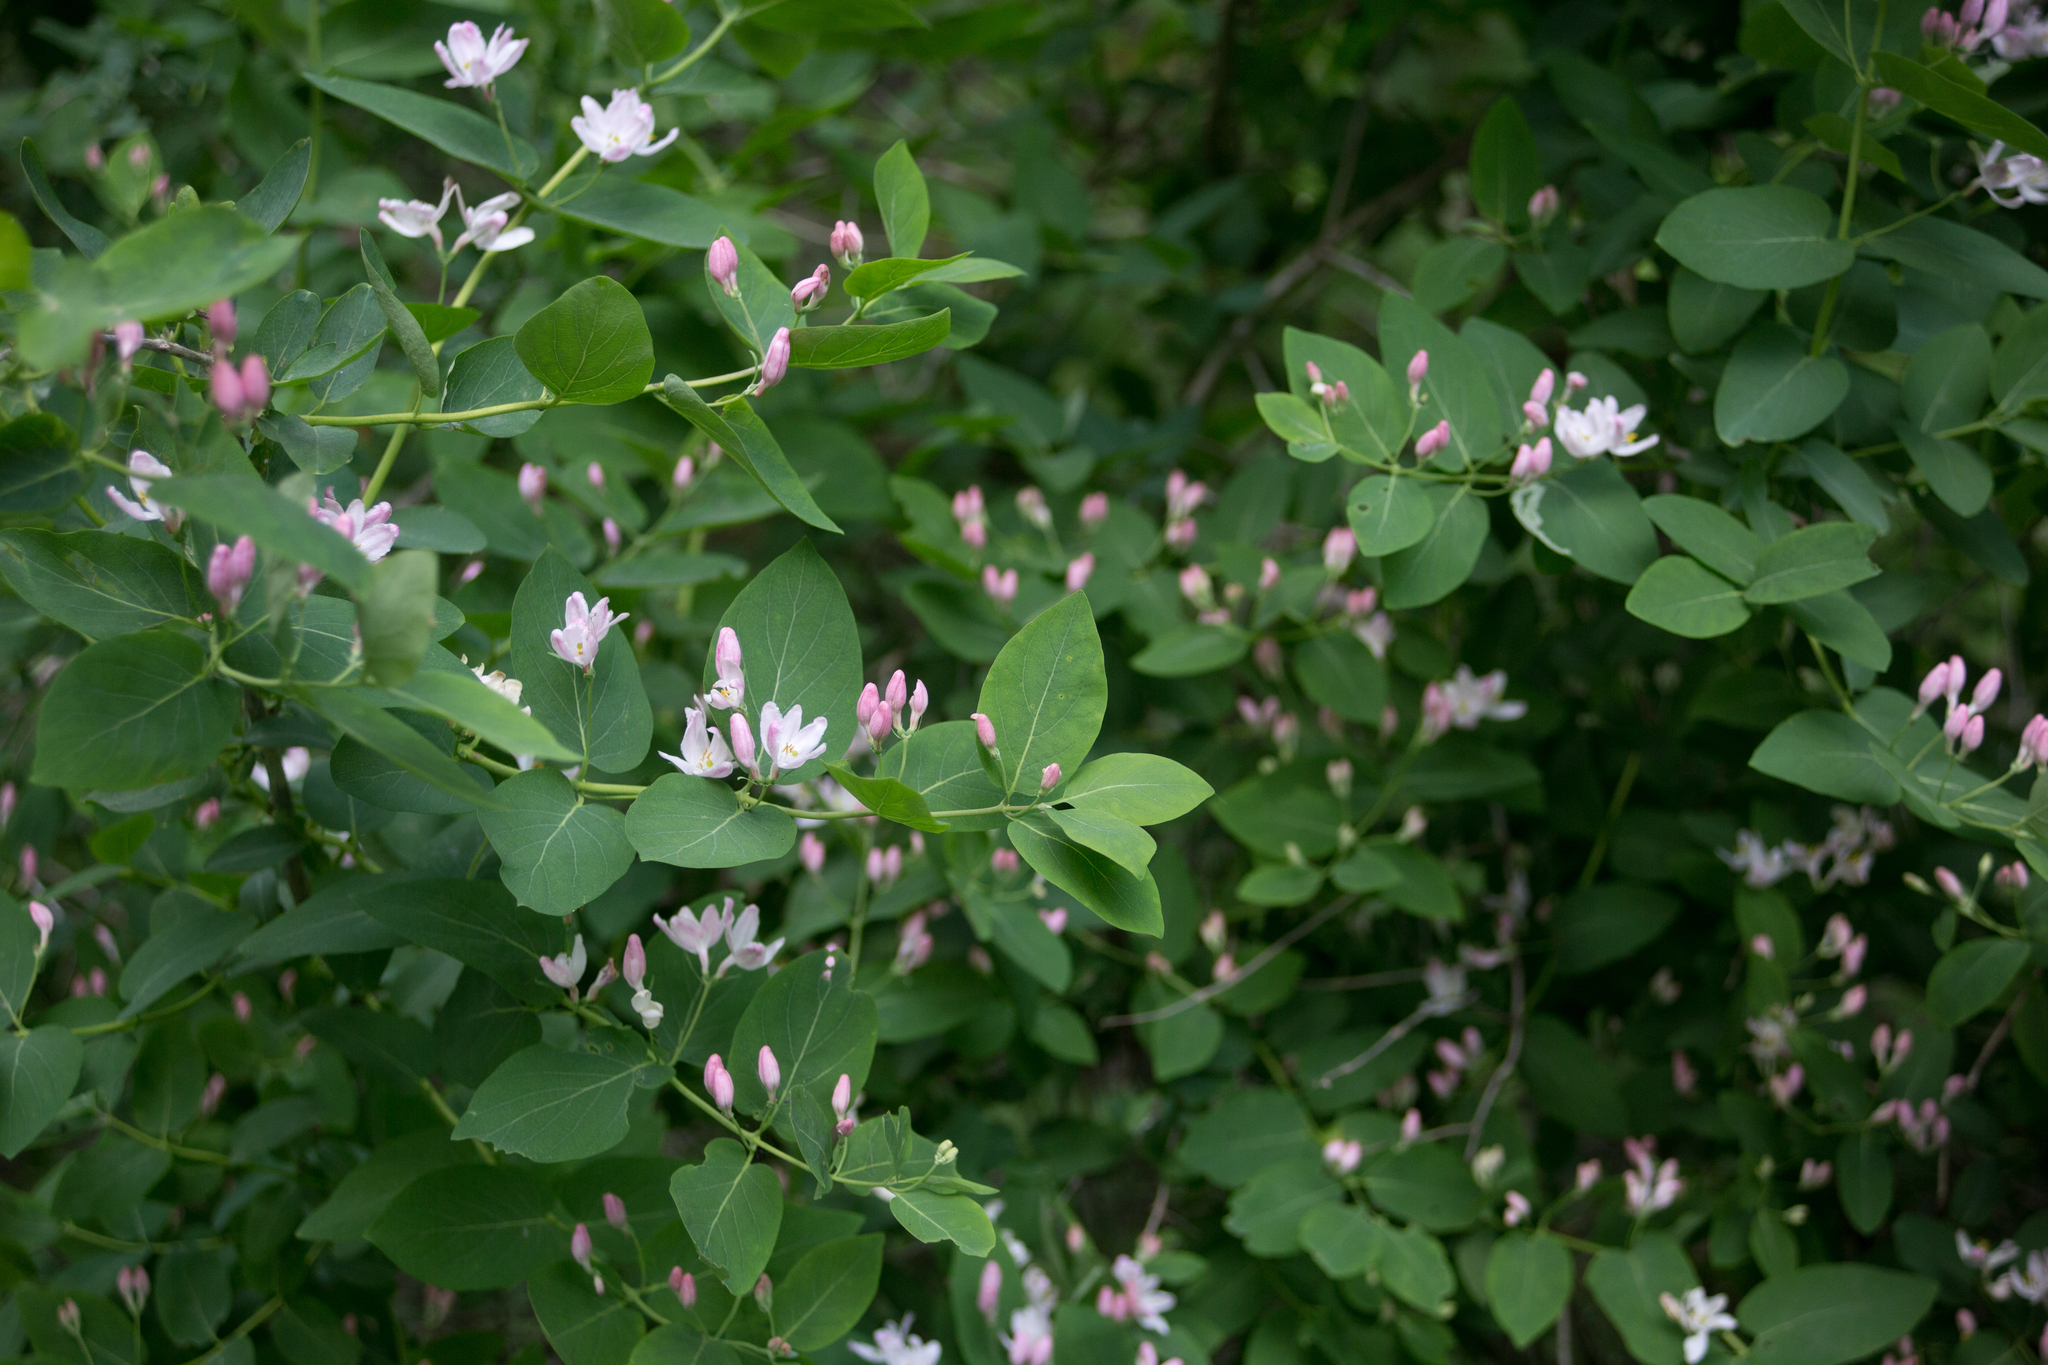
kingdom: Plantae
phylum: Tracheophyta
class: Magnoliopsida
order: Dipsacales
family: Caprifoliaceae
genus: Lonicera
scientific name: Lonicera tatarica
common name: Tatarian honeysuckle
